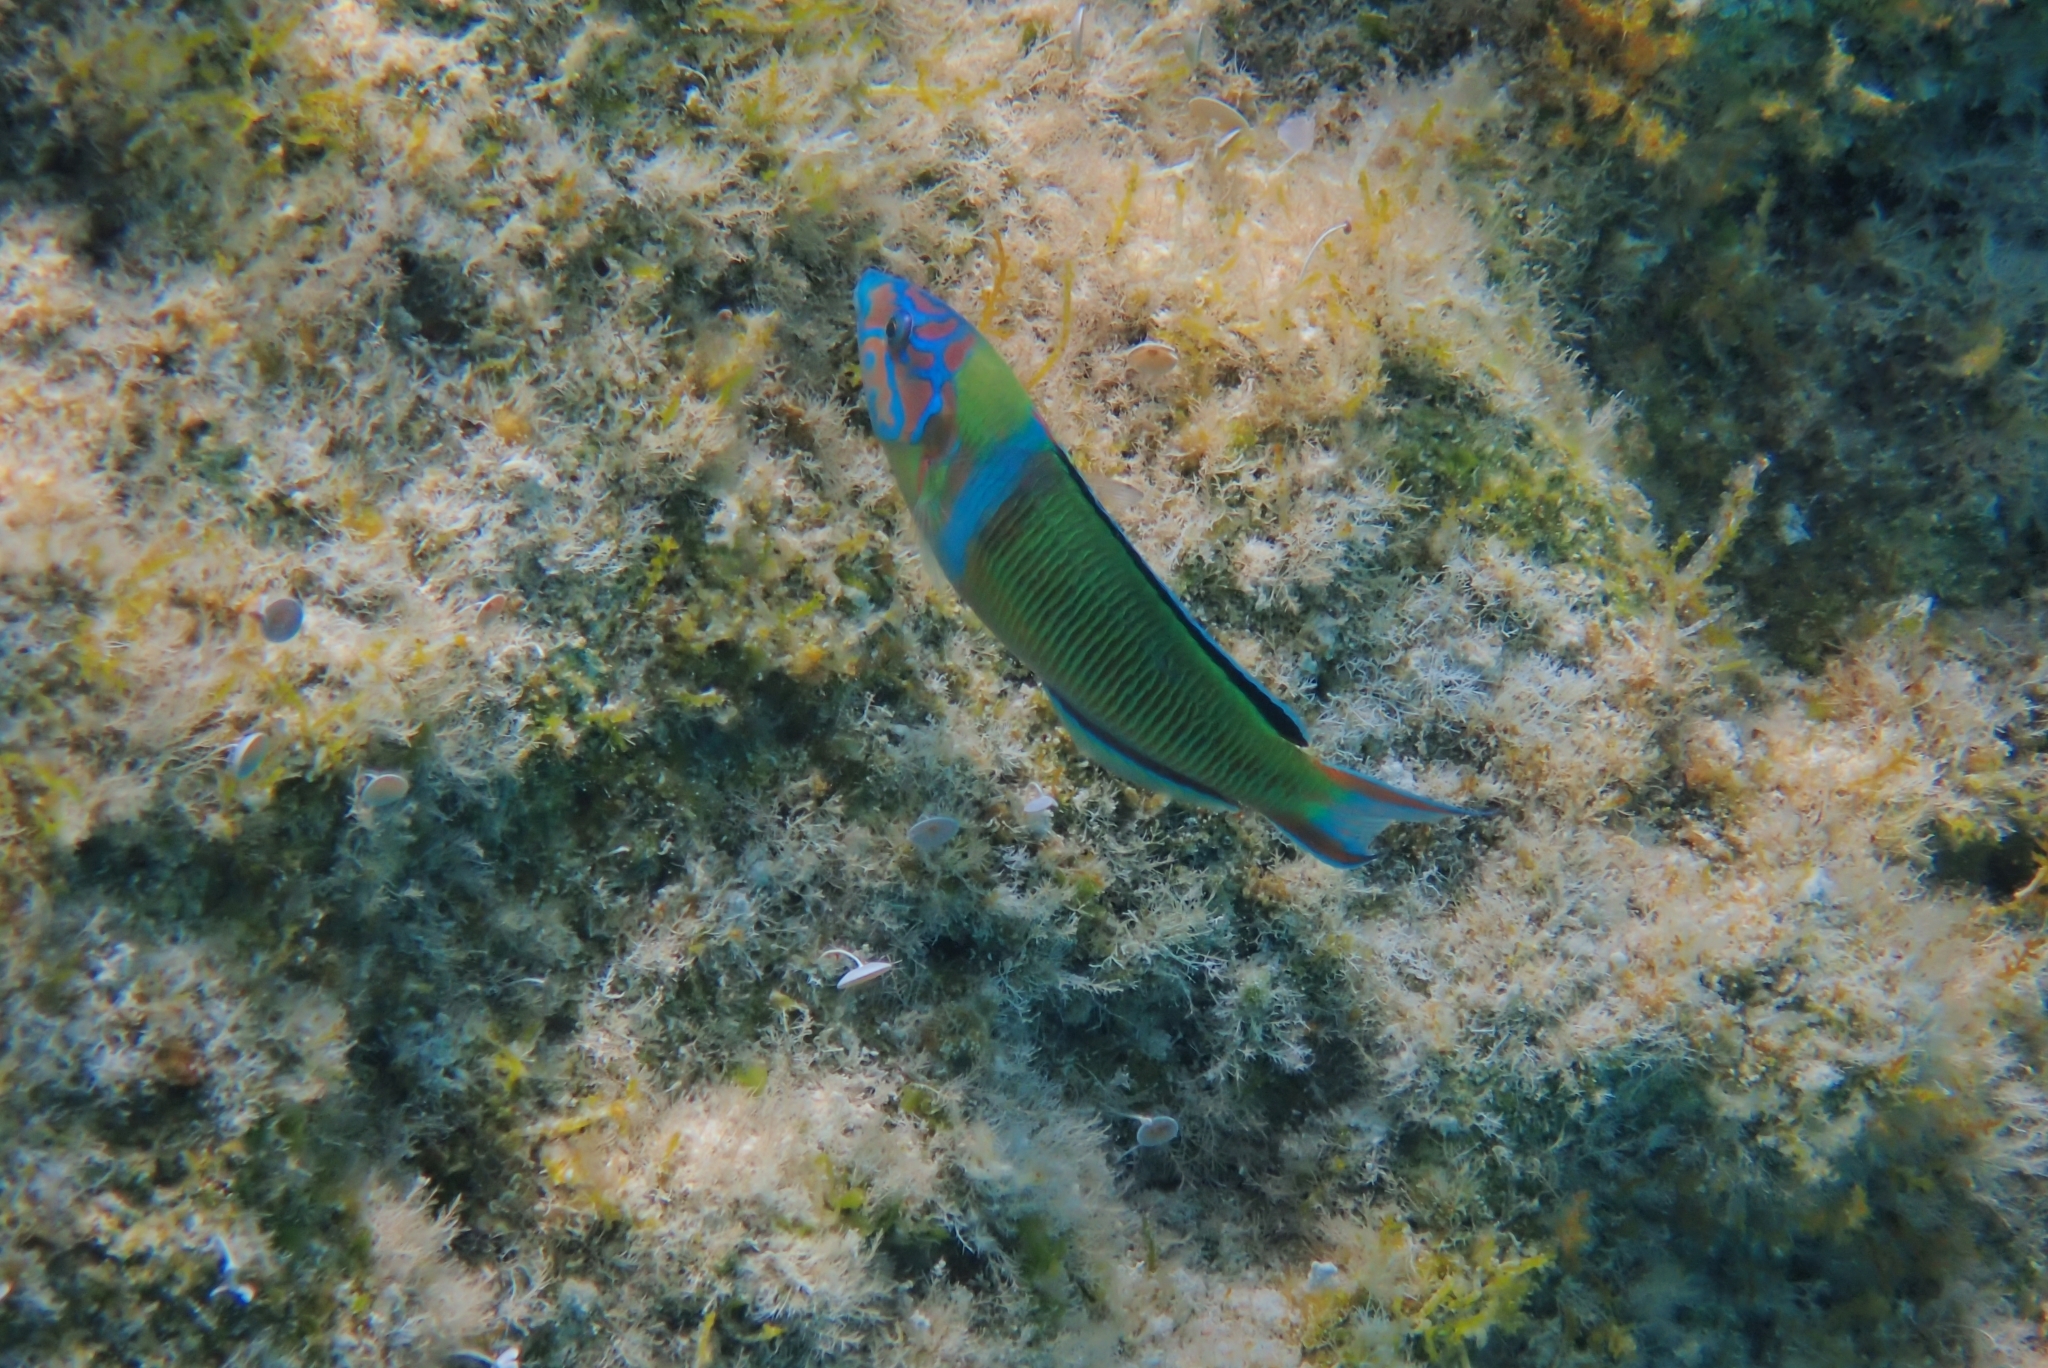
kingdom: Animalia
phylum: Chordata
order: Perciformes
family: Labridae
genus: Thalassoma
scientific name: Thalassoma pavo
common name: Ornate wrasse
